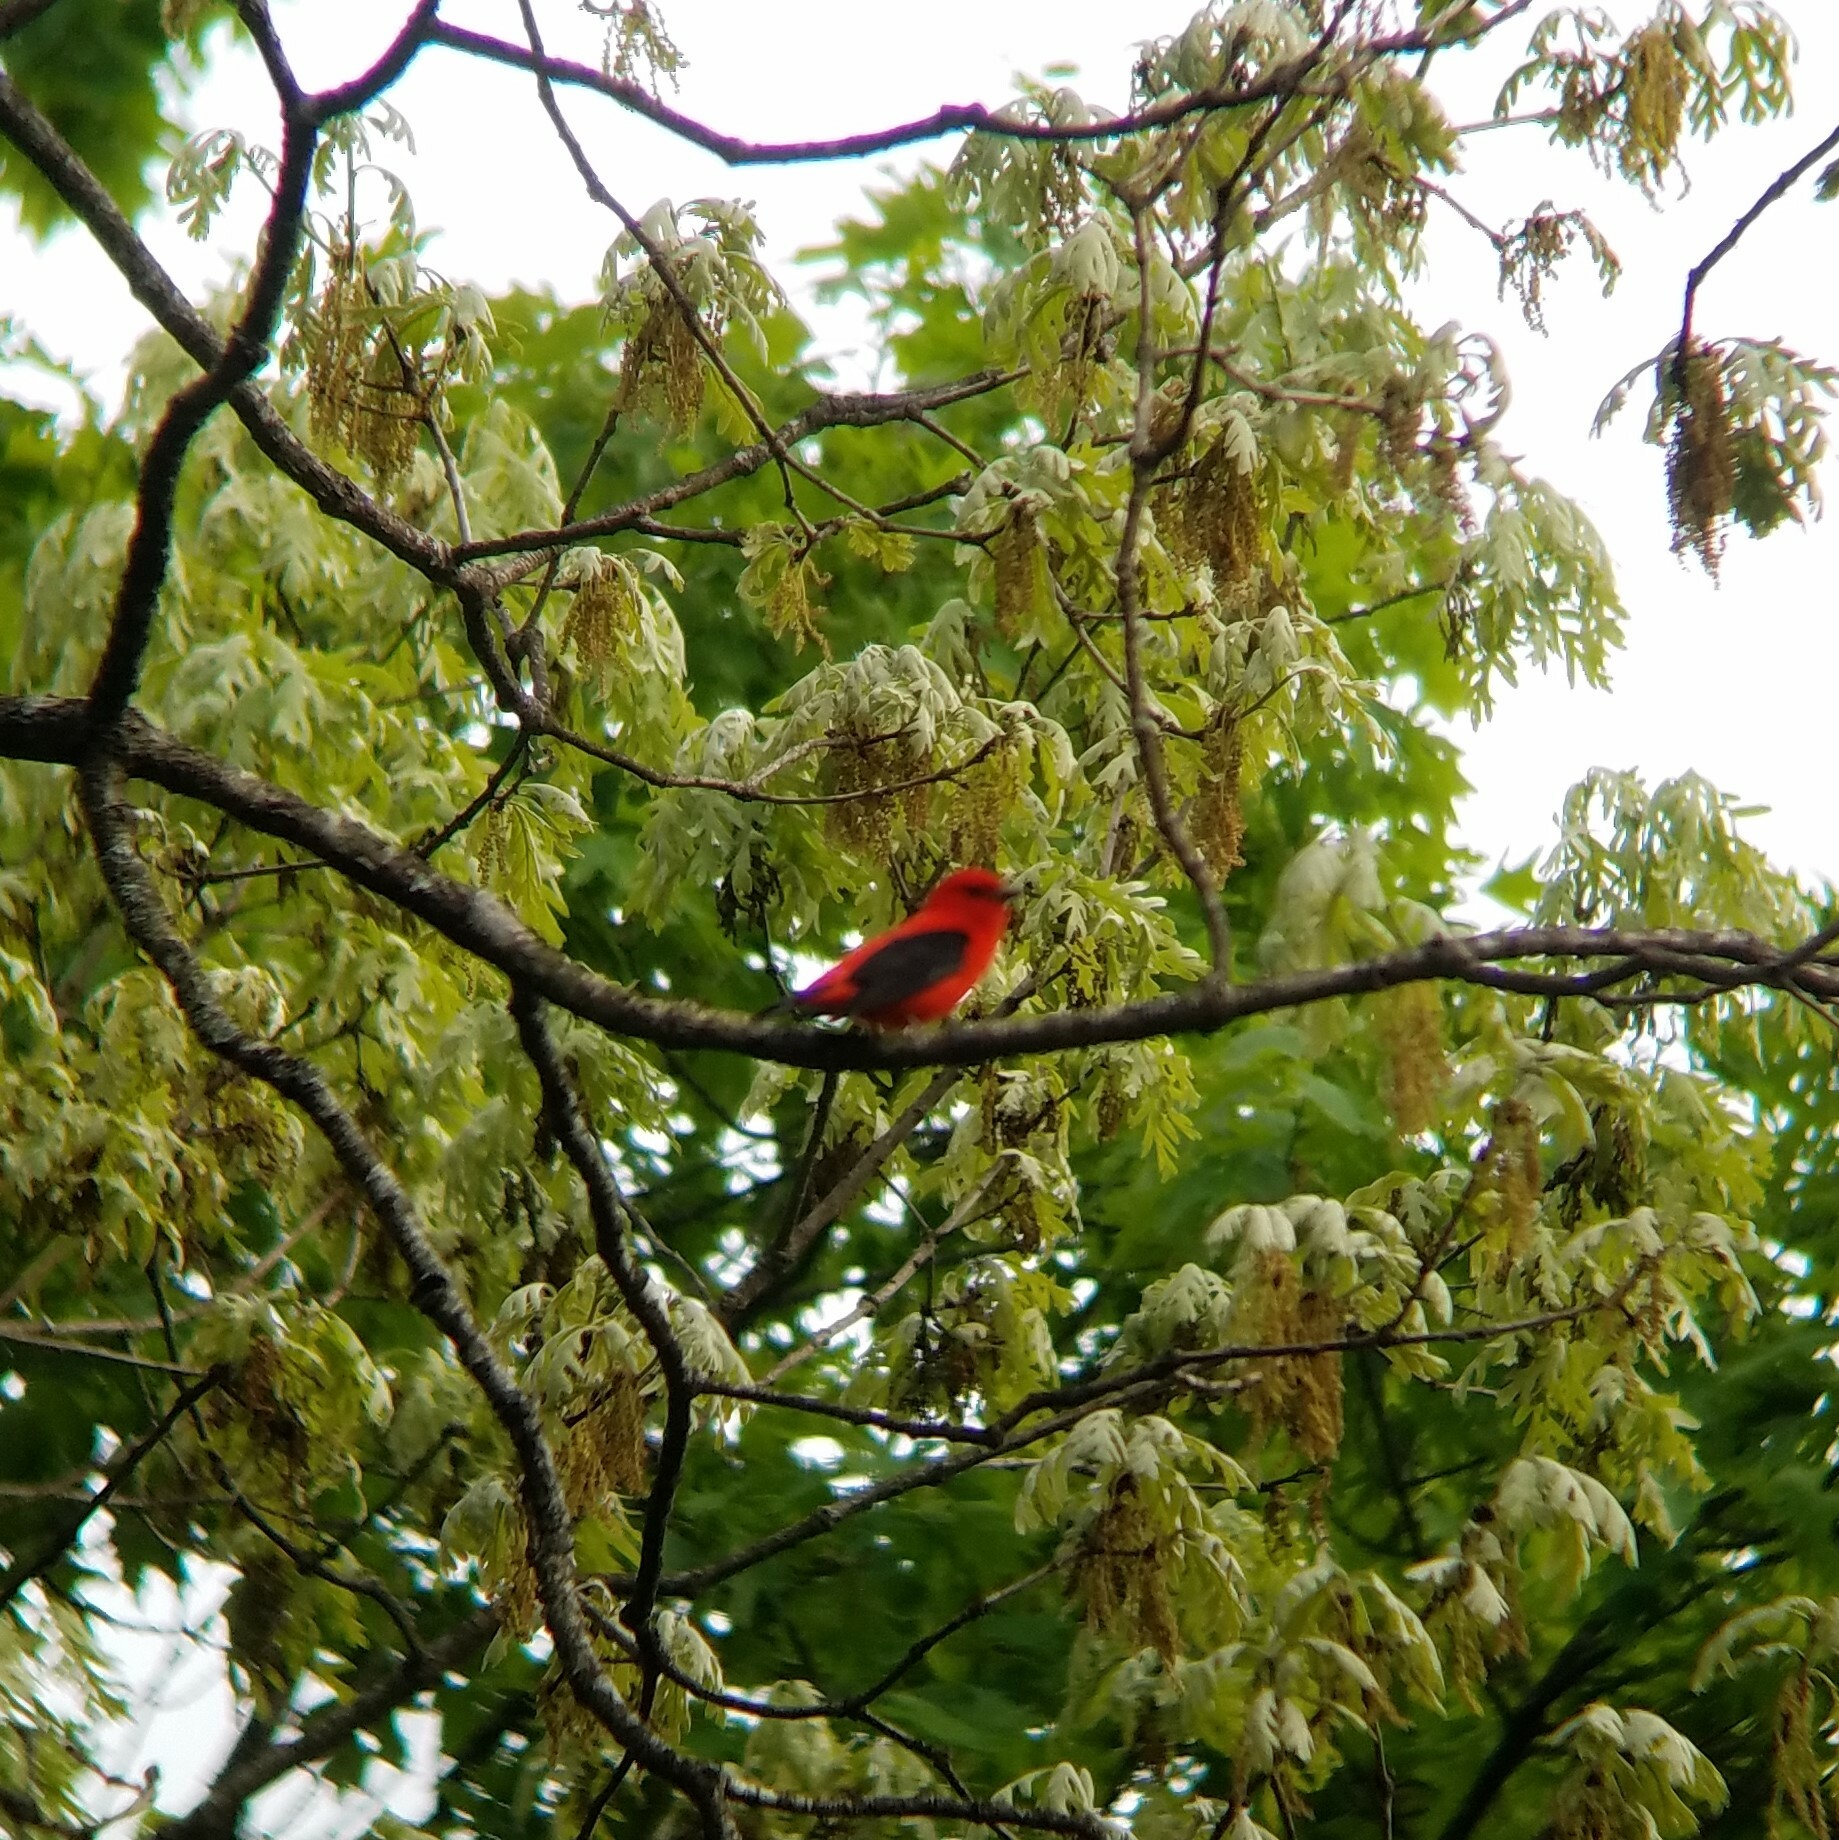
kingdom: Animalia
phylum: Chordata
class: Aves
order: Passeriformes
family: Cardinalidae
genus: Piranga
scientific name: Piranga olivacea
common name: Scarlet tanager
